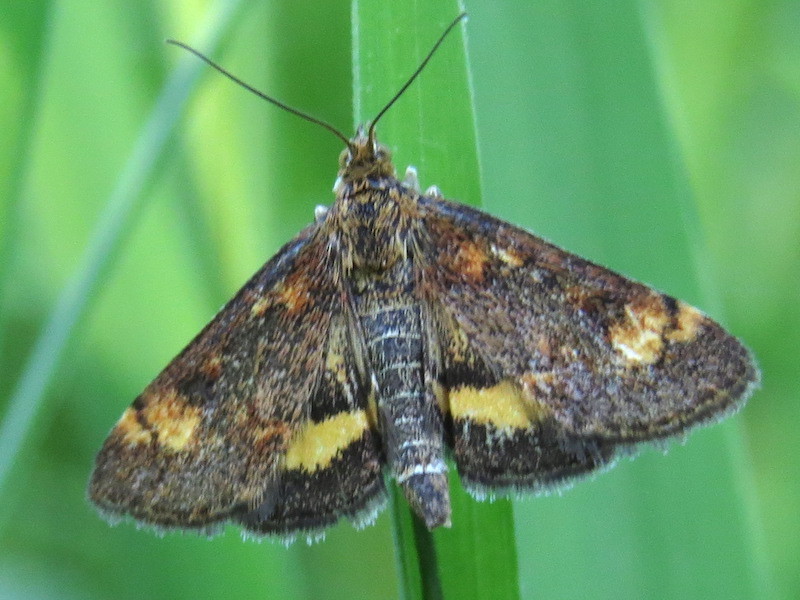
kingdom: Animalia
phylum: Arthropoda
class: Insecta
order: Lepidoptera
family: Crambidae
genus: Pyrausta
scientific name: Pyrausta orphisalis
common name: Orange mint moth
